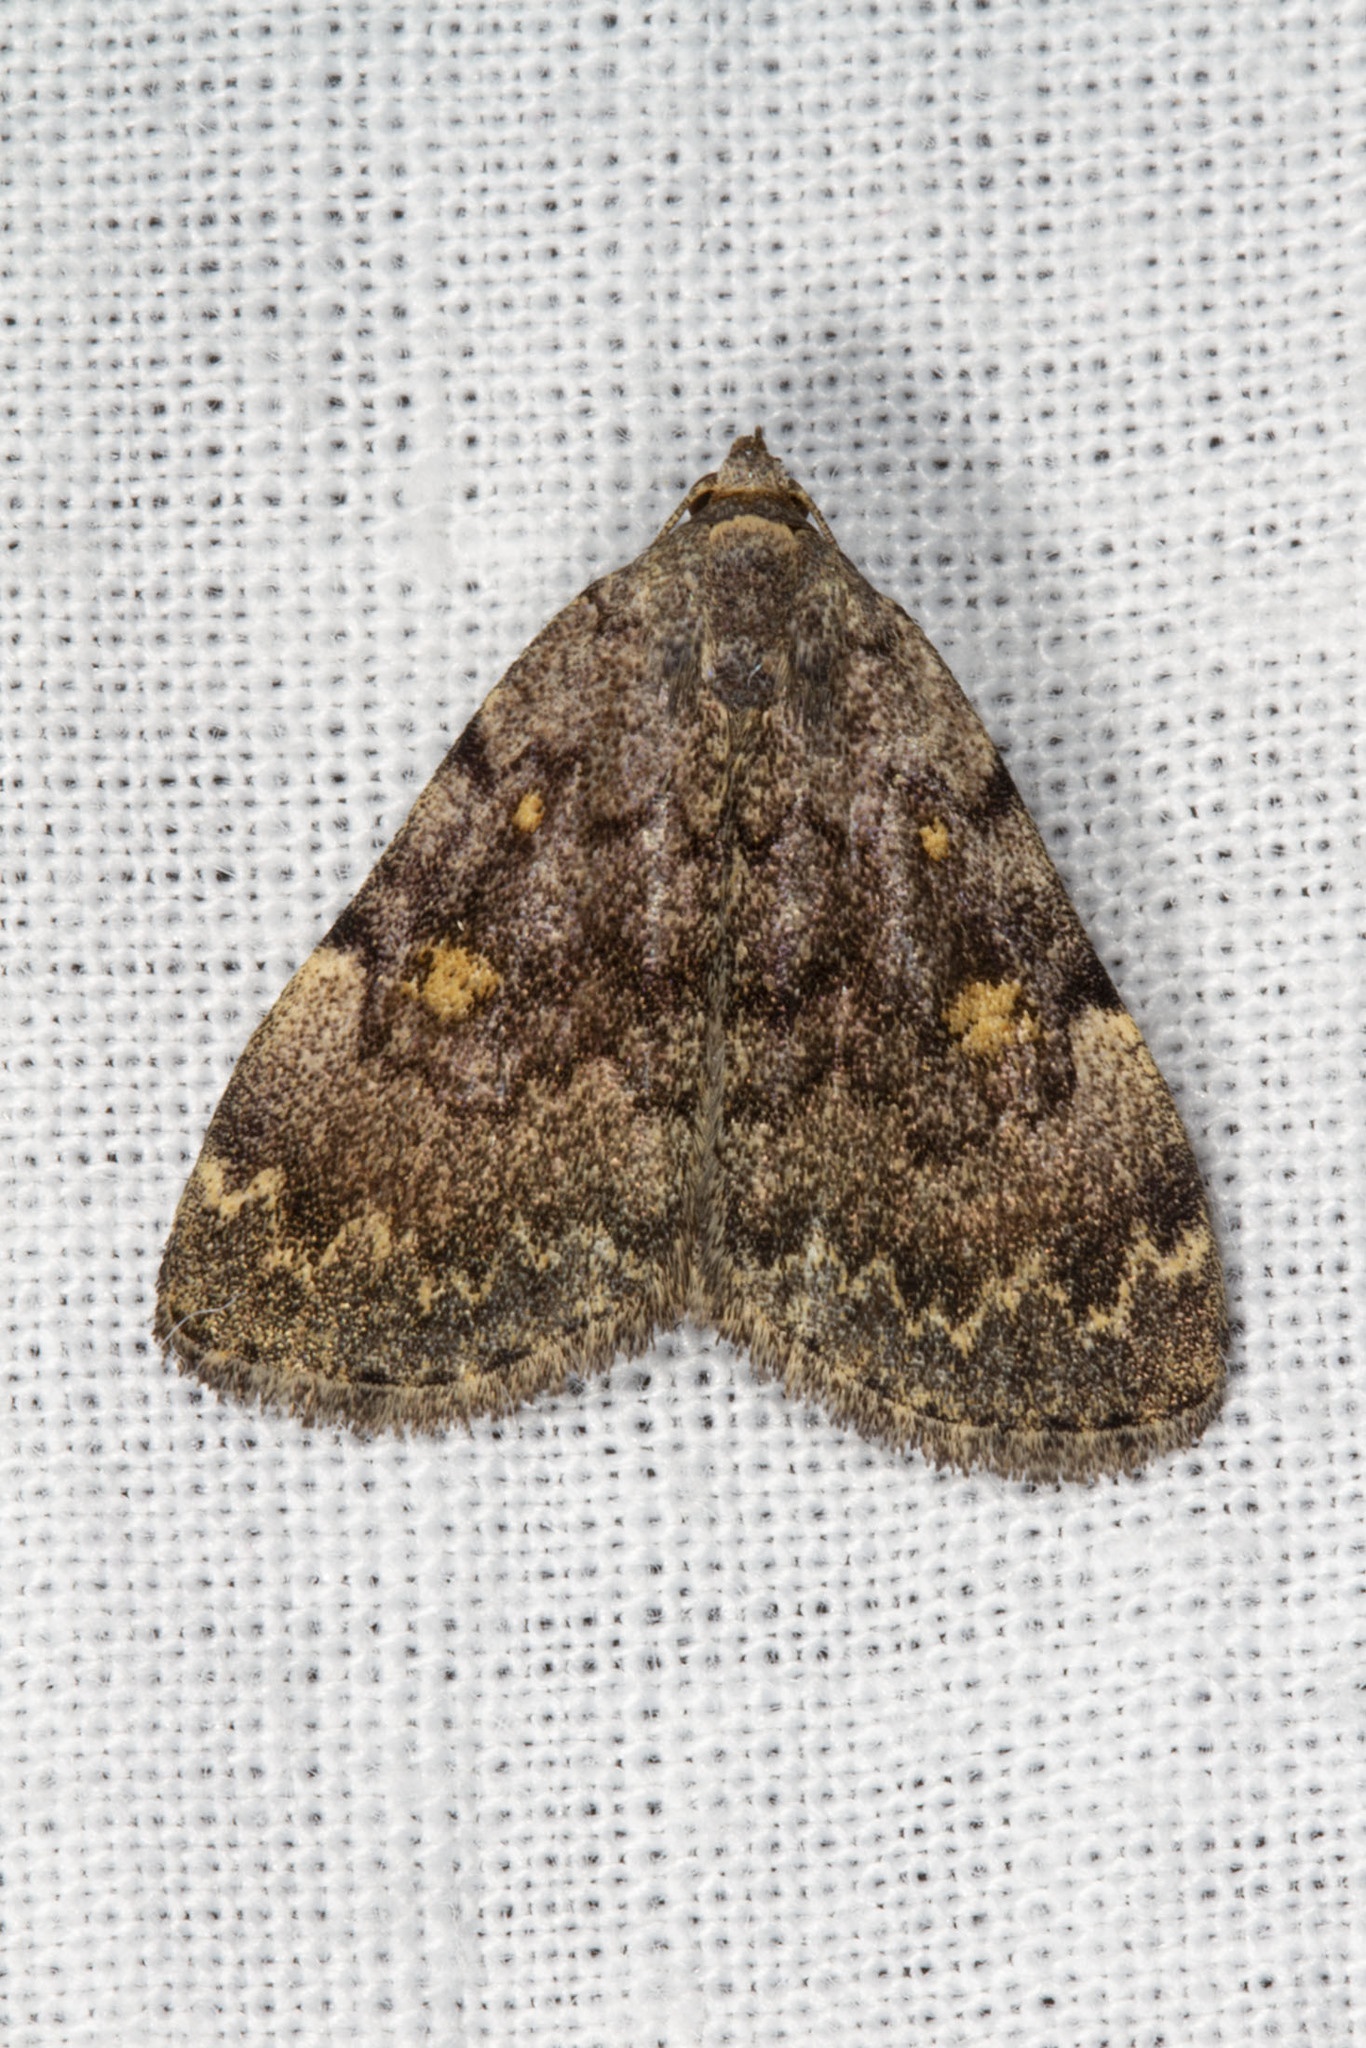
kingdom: Animalia
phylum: Arthropoda
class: Insecta
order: Lepidoptera
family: Erebidae
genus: Idia
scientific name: Idia aemula
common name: Common idia moth
